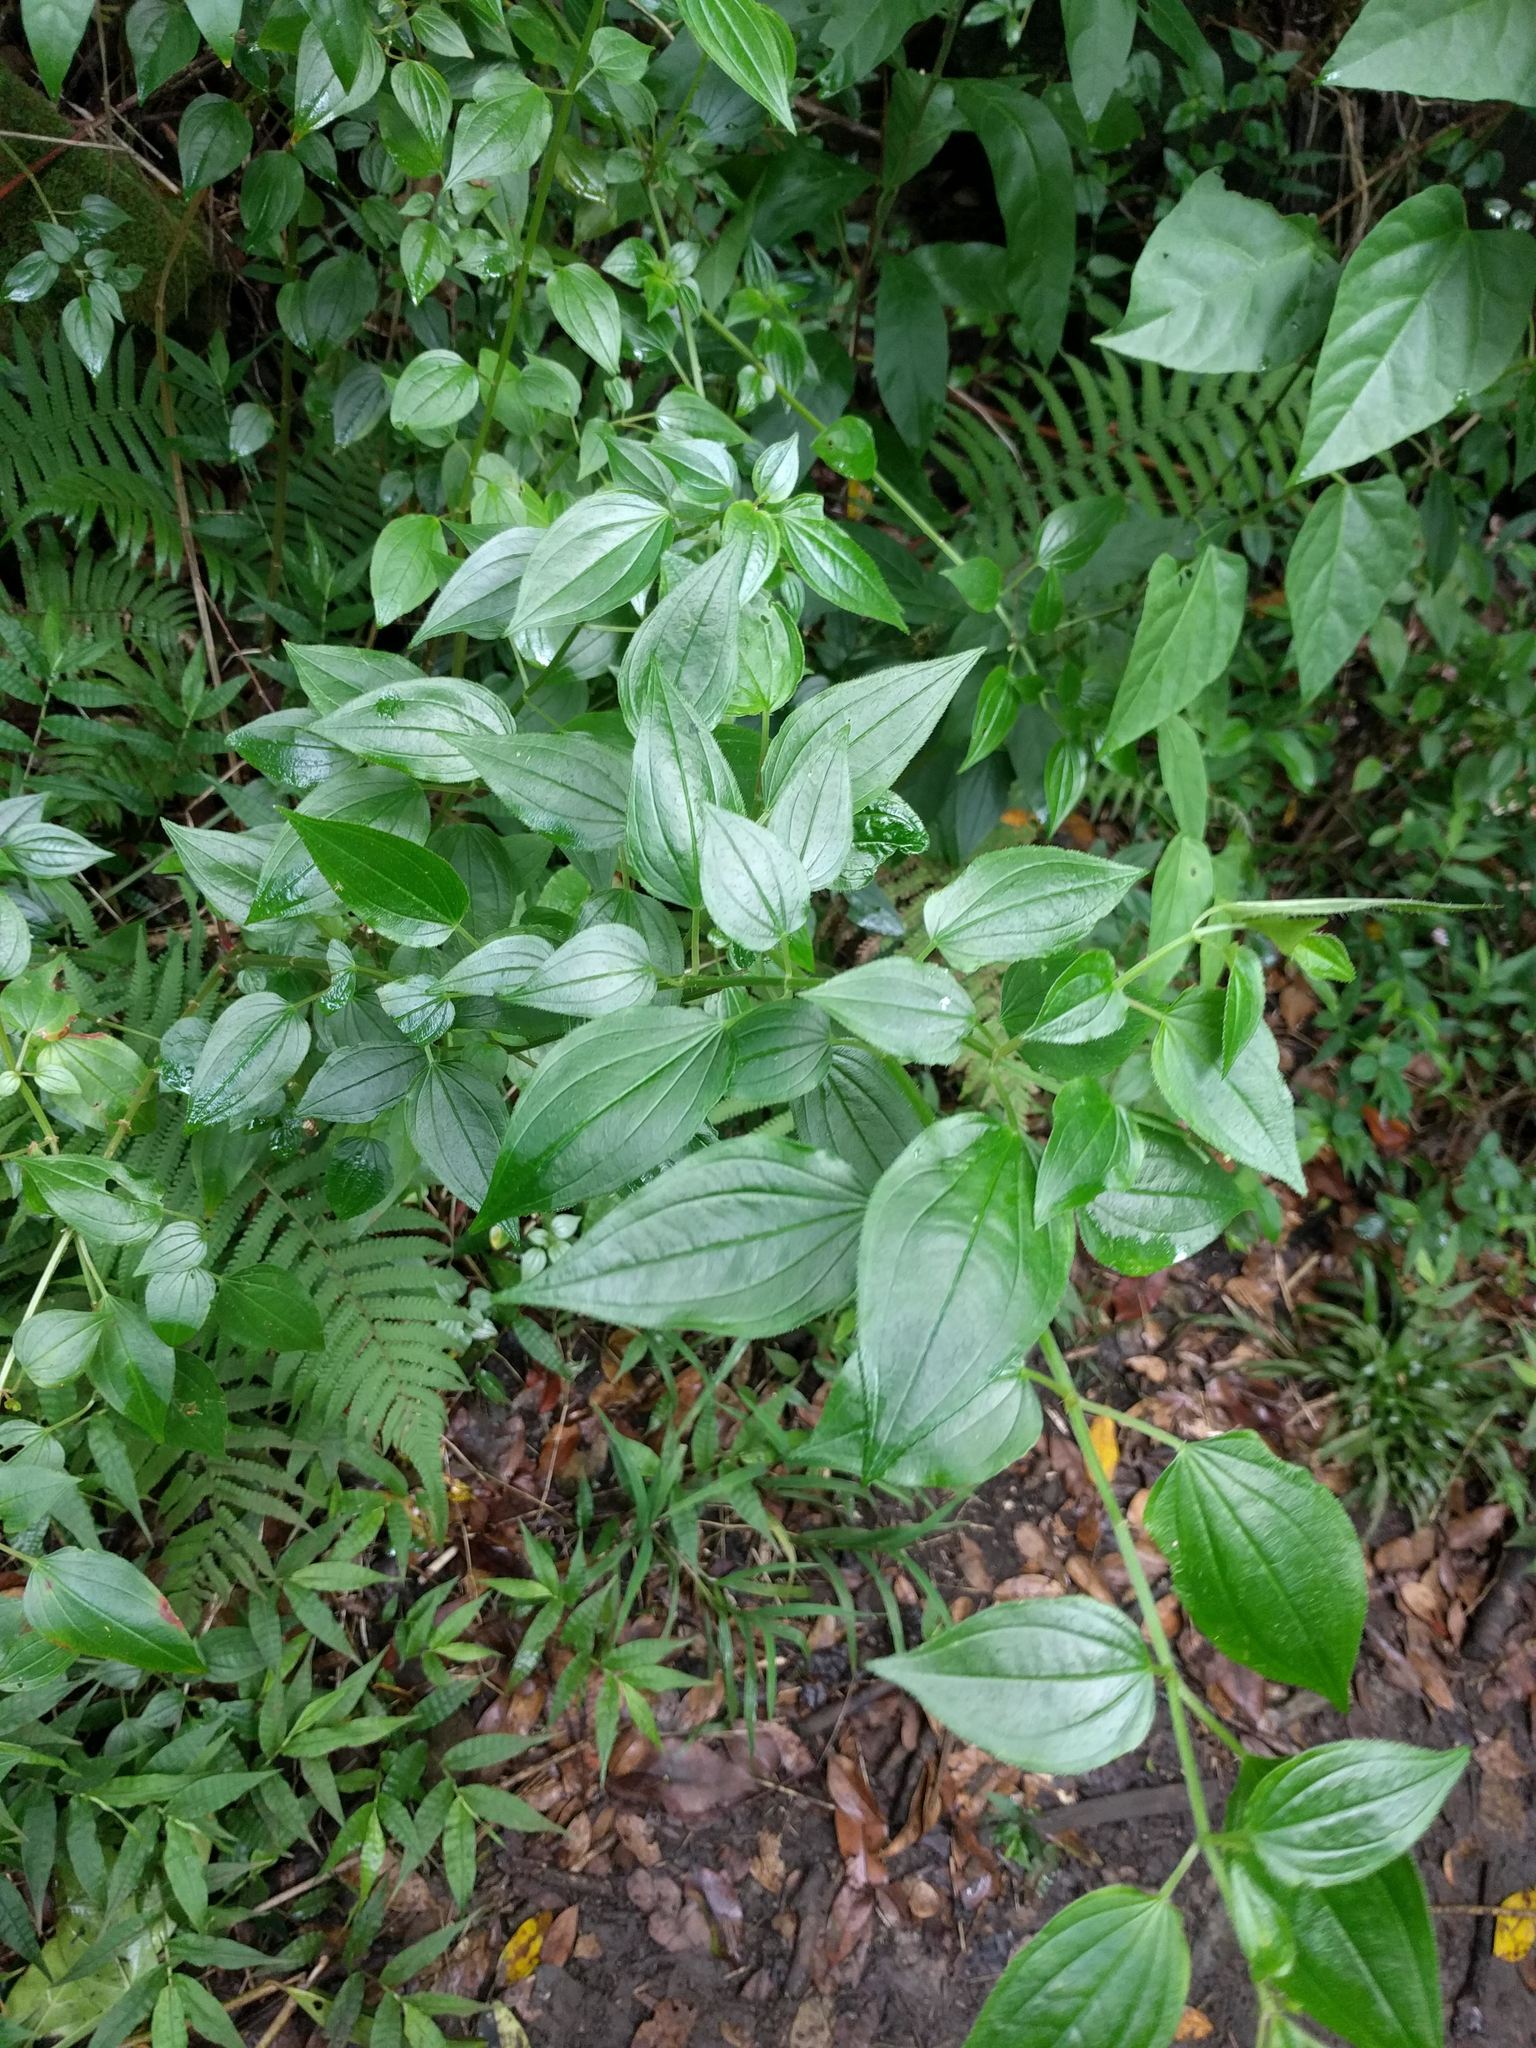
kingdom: Plantae
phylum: Tracheophyta
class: Magnoliopsida
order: Myrtales
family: Melastomataceae
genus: Arthrostemma
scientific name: Arthrostemma ciliatum
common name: Everblooming eavender
